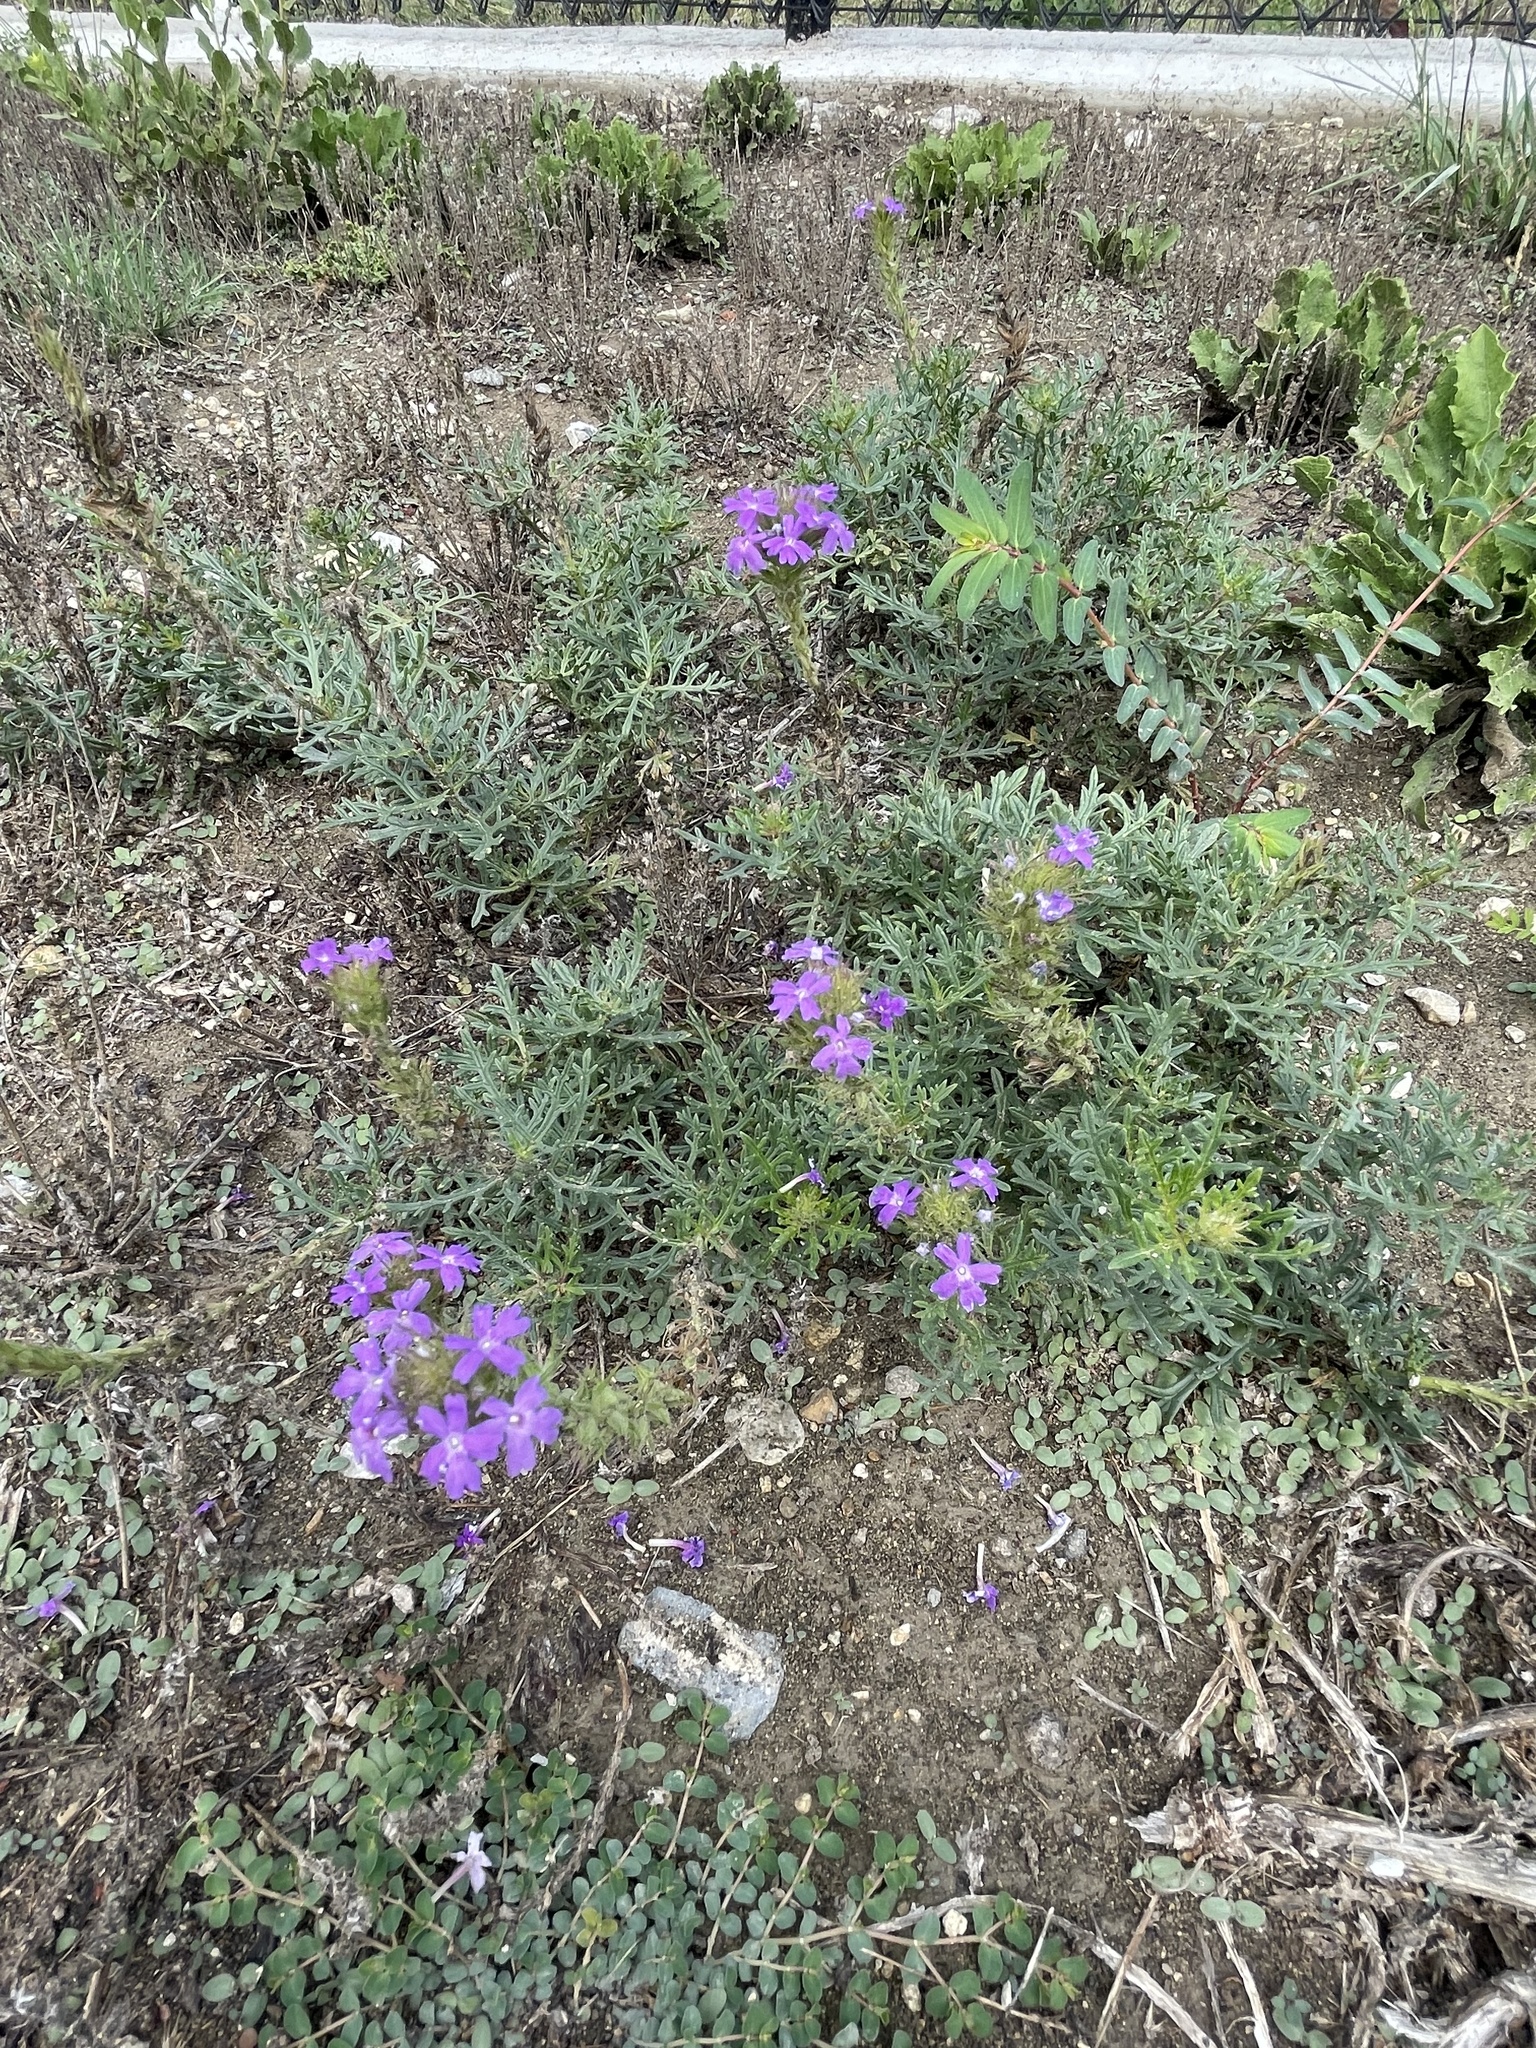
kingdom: Plantae
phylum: Tracheophyta
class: Magnoliopsida
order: Lamiales
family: Verbenaceae
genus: Verbena
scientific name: Verbena bipinnatifida
